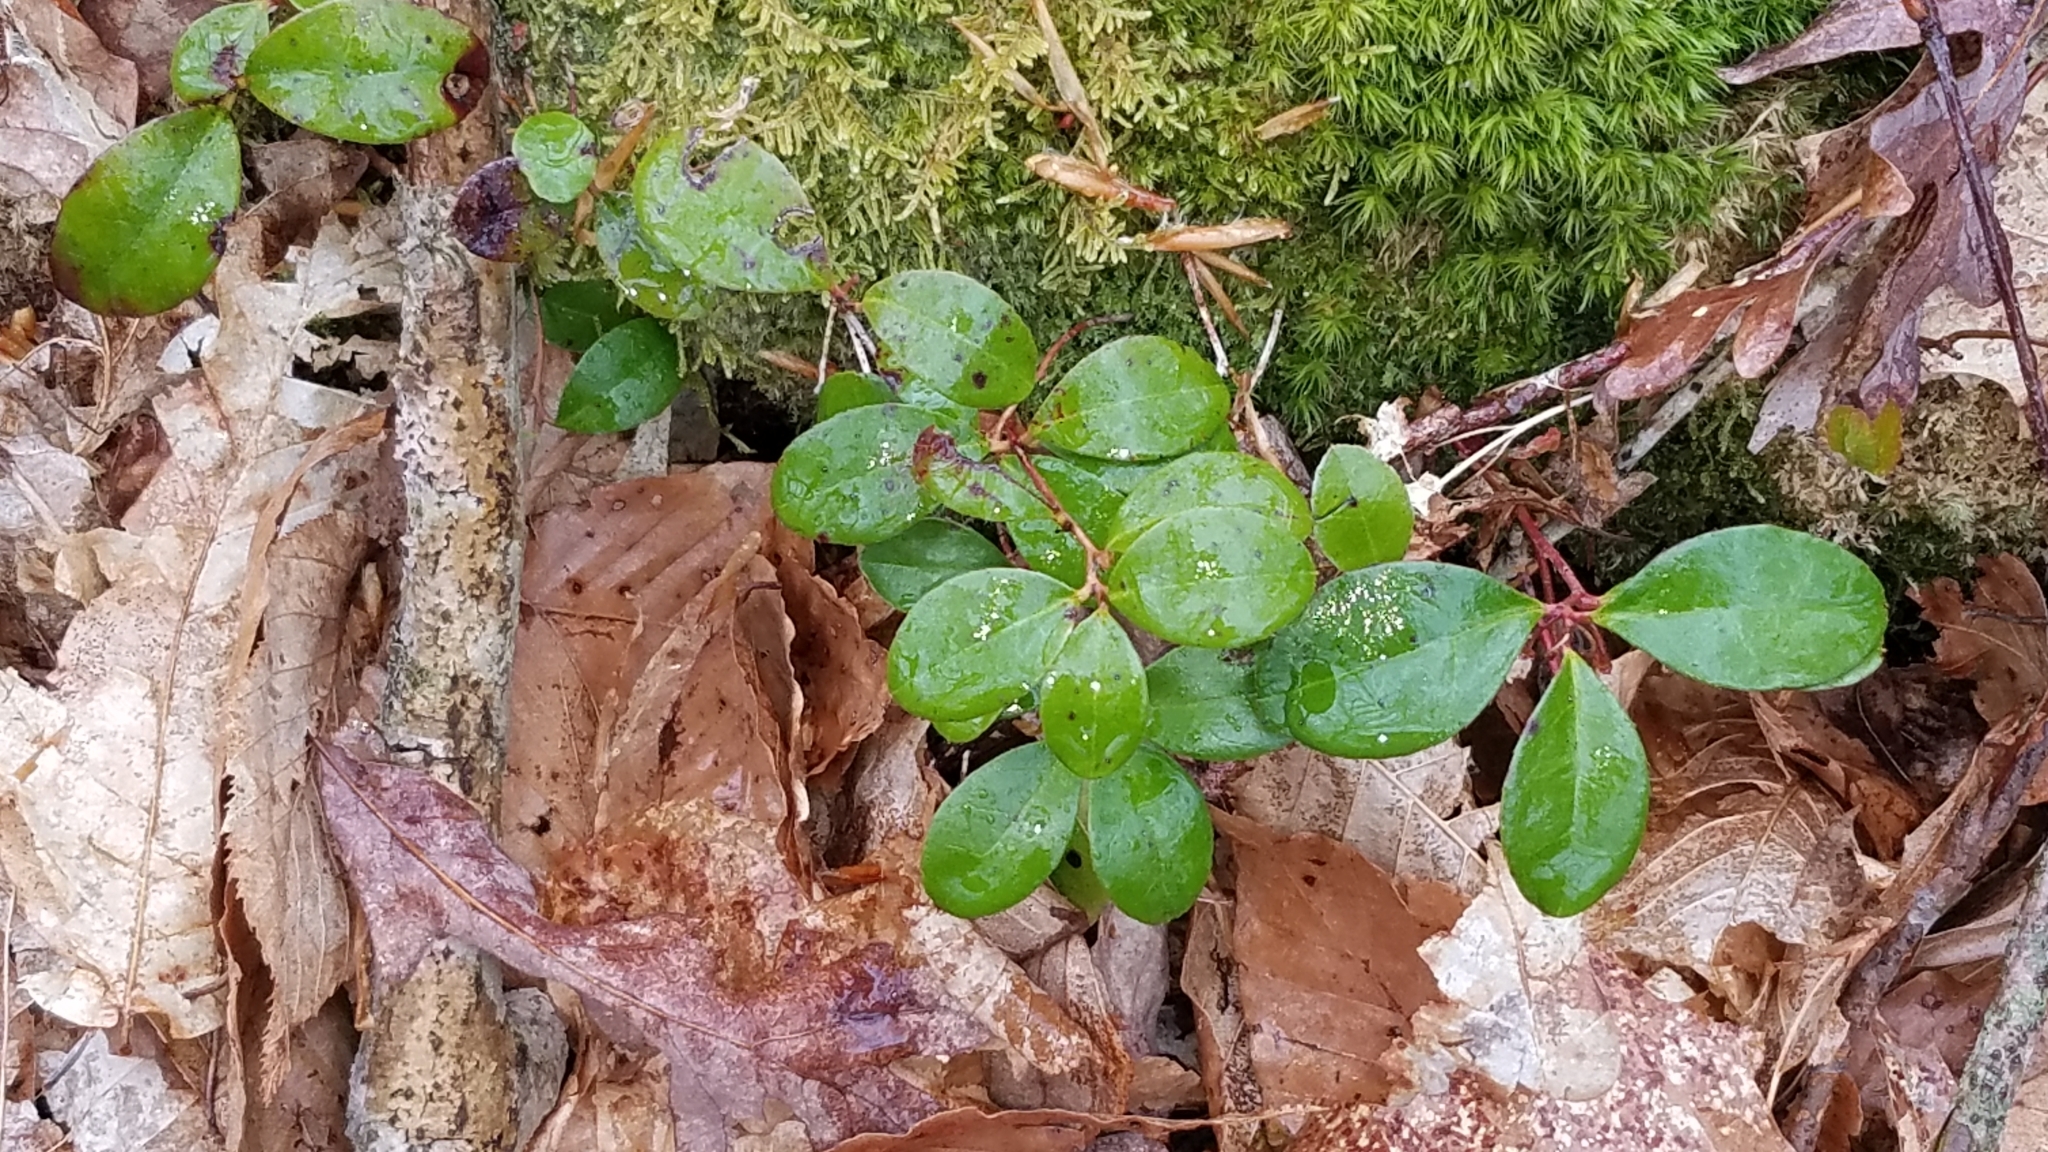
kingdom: Plantae
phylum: Tracheophyta
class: Magnoliopsida
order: Ericales
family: Ericaceae
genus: Gaultheria
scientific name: Gaultheria procumbens
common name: Checkerberry
